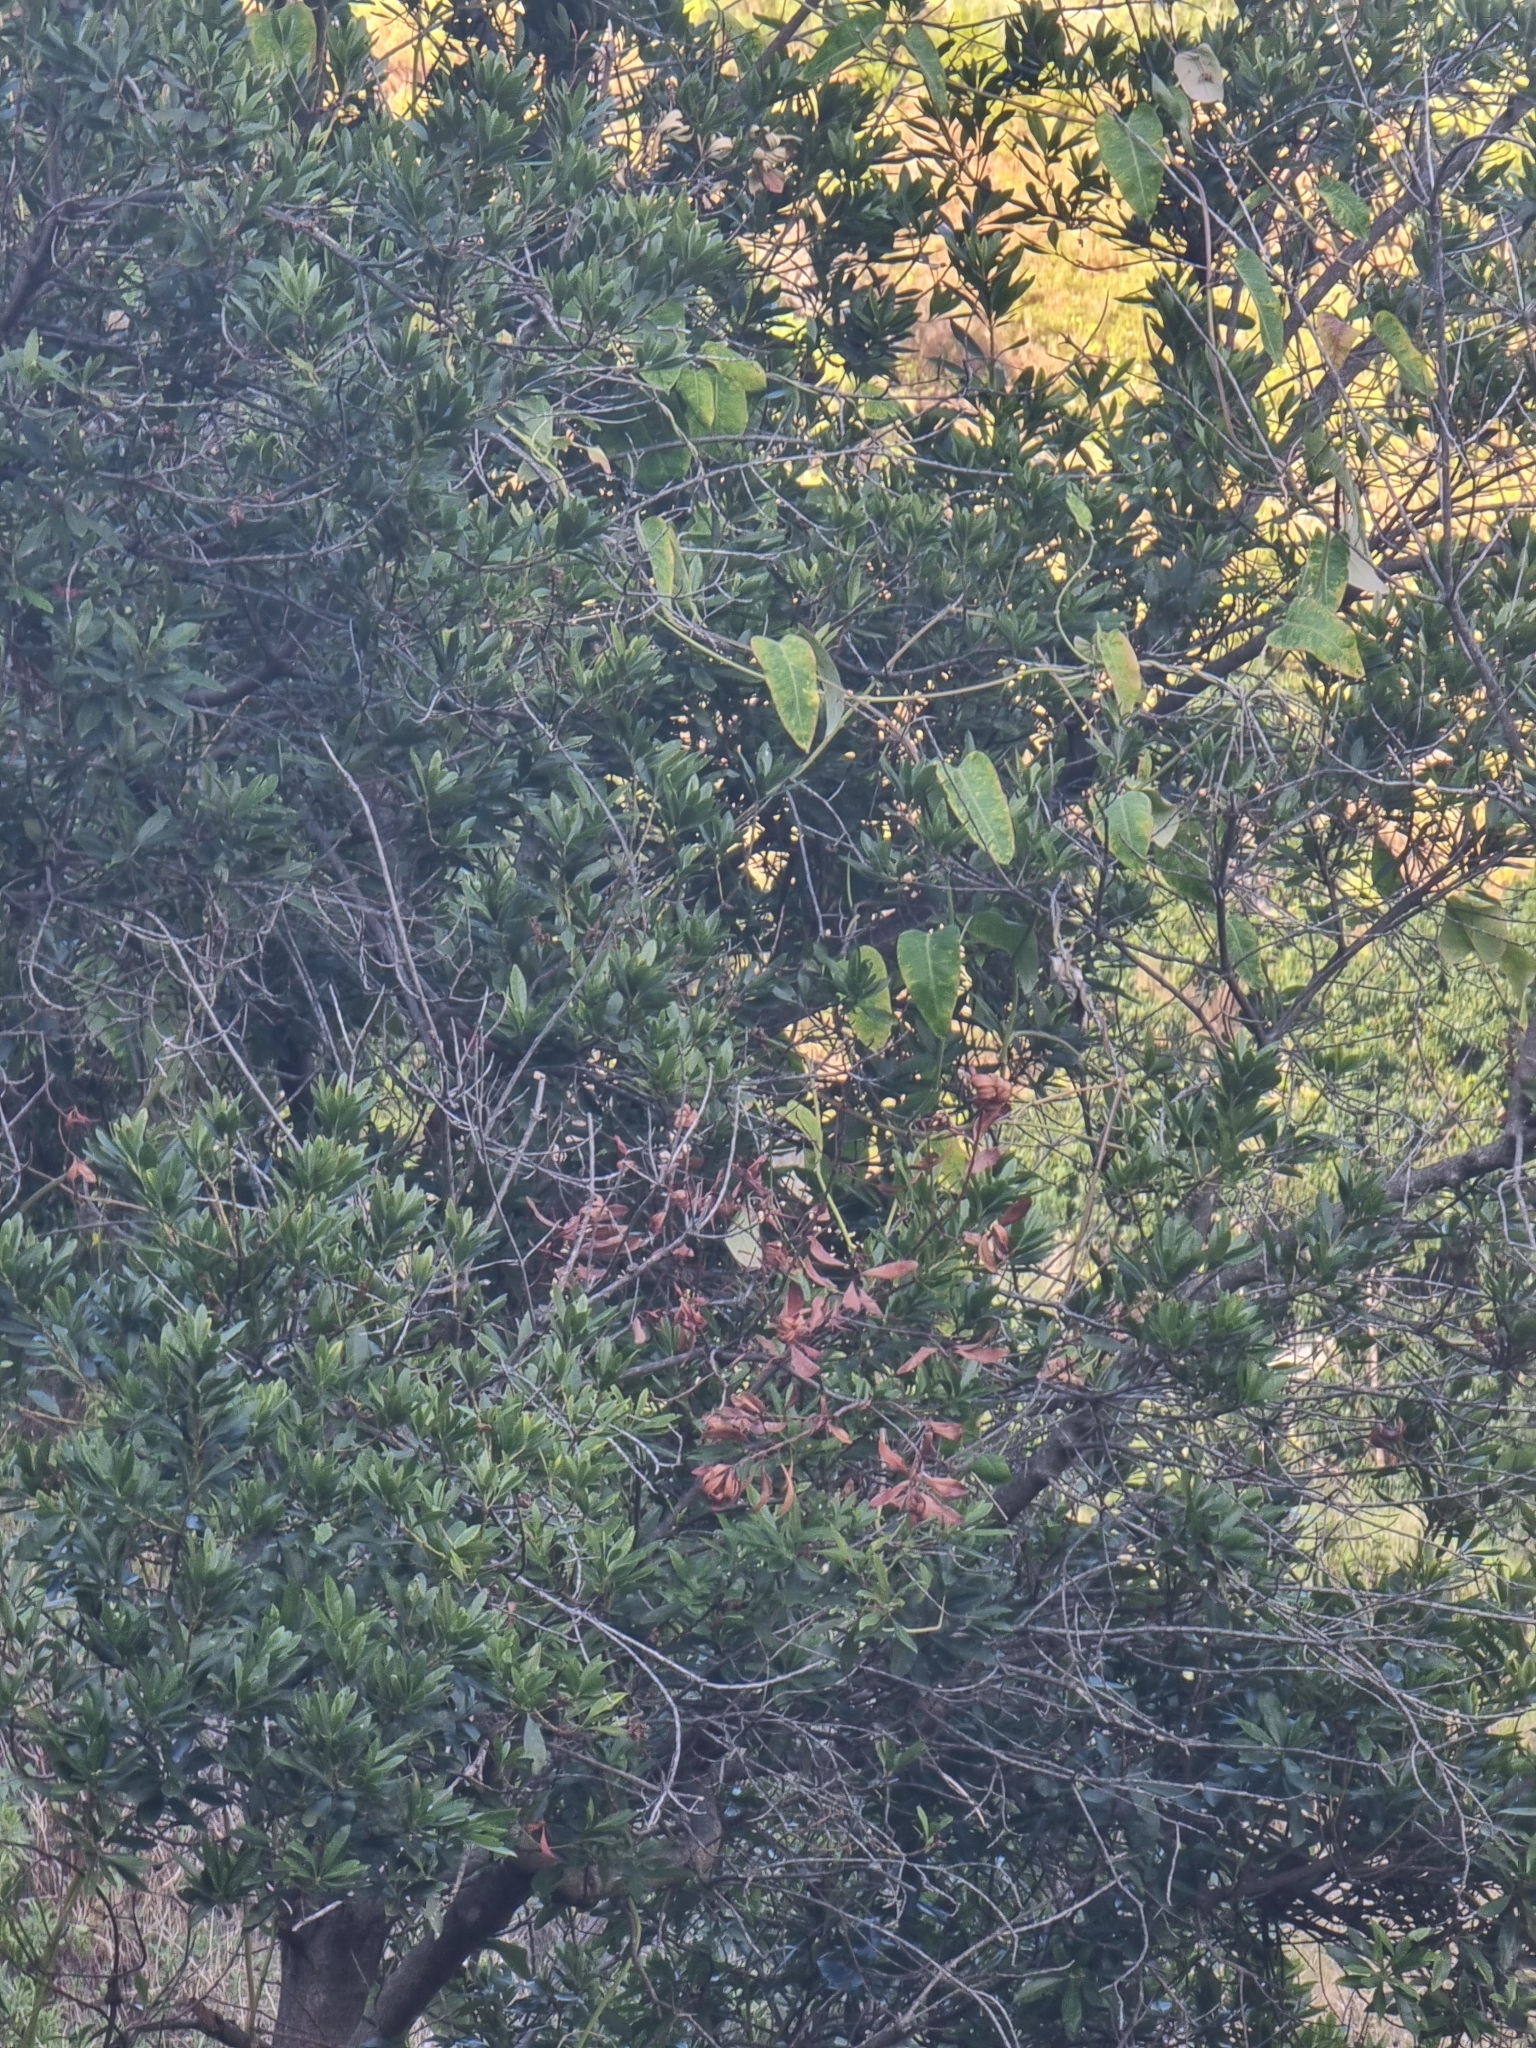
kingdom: Plantae
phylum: Tracheophyta
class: Magnoliopsida
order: Gentianales
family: Apocynaceae
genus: Araujia
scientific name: Araujia sericifera
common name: White bladderflower
